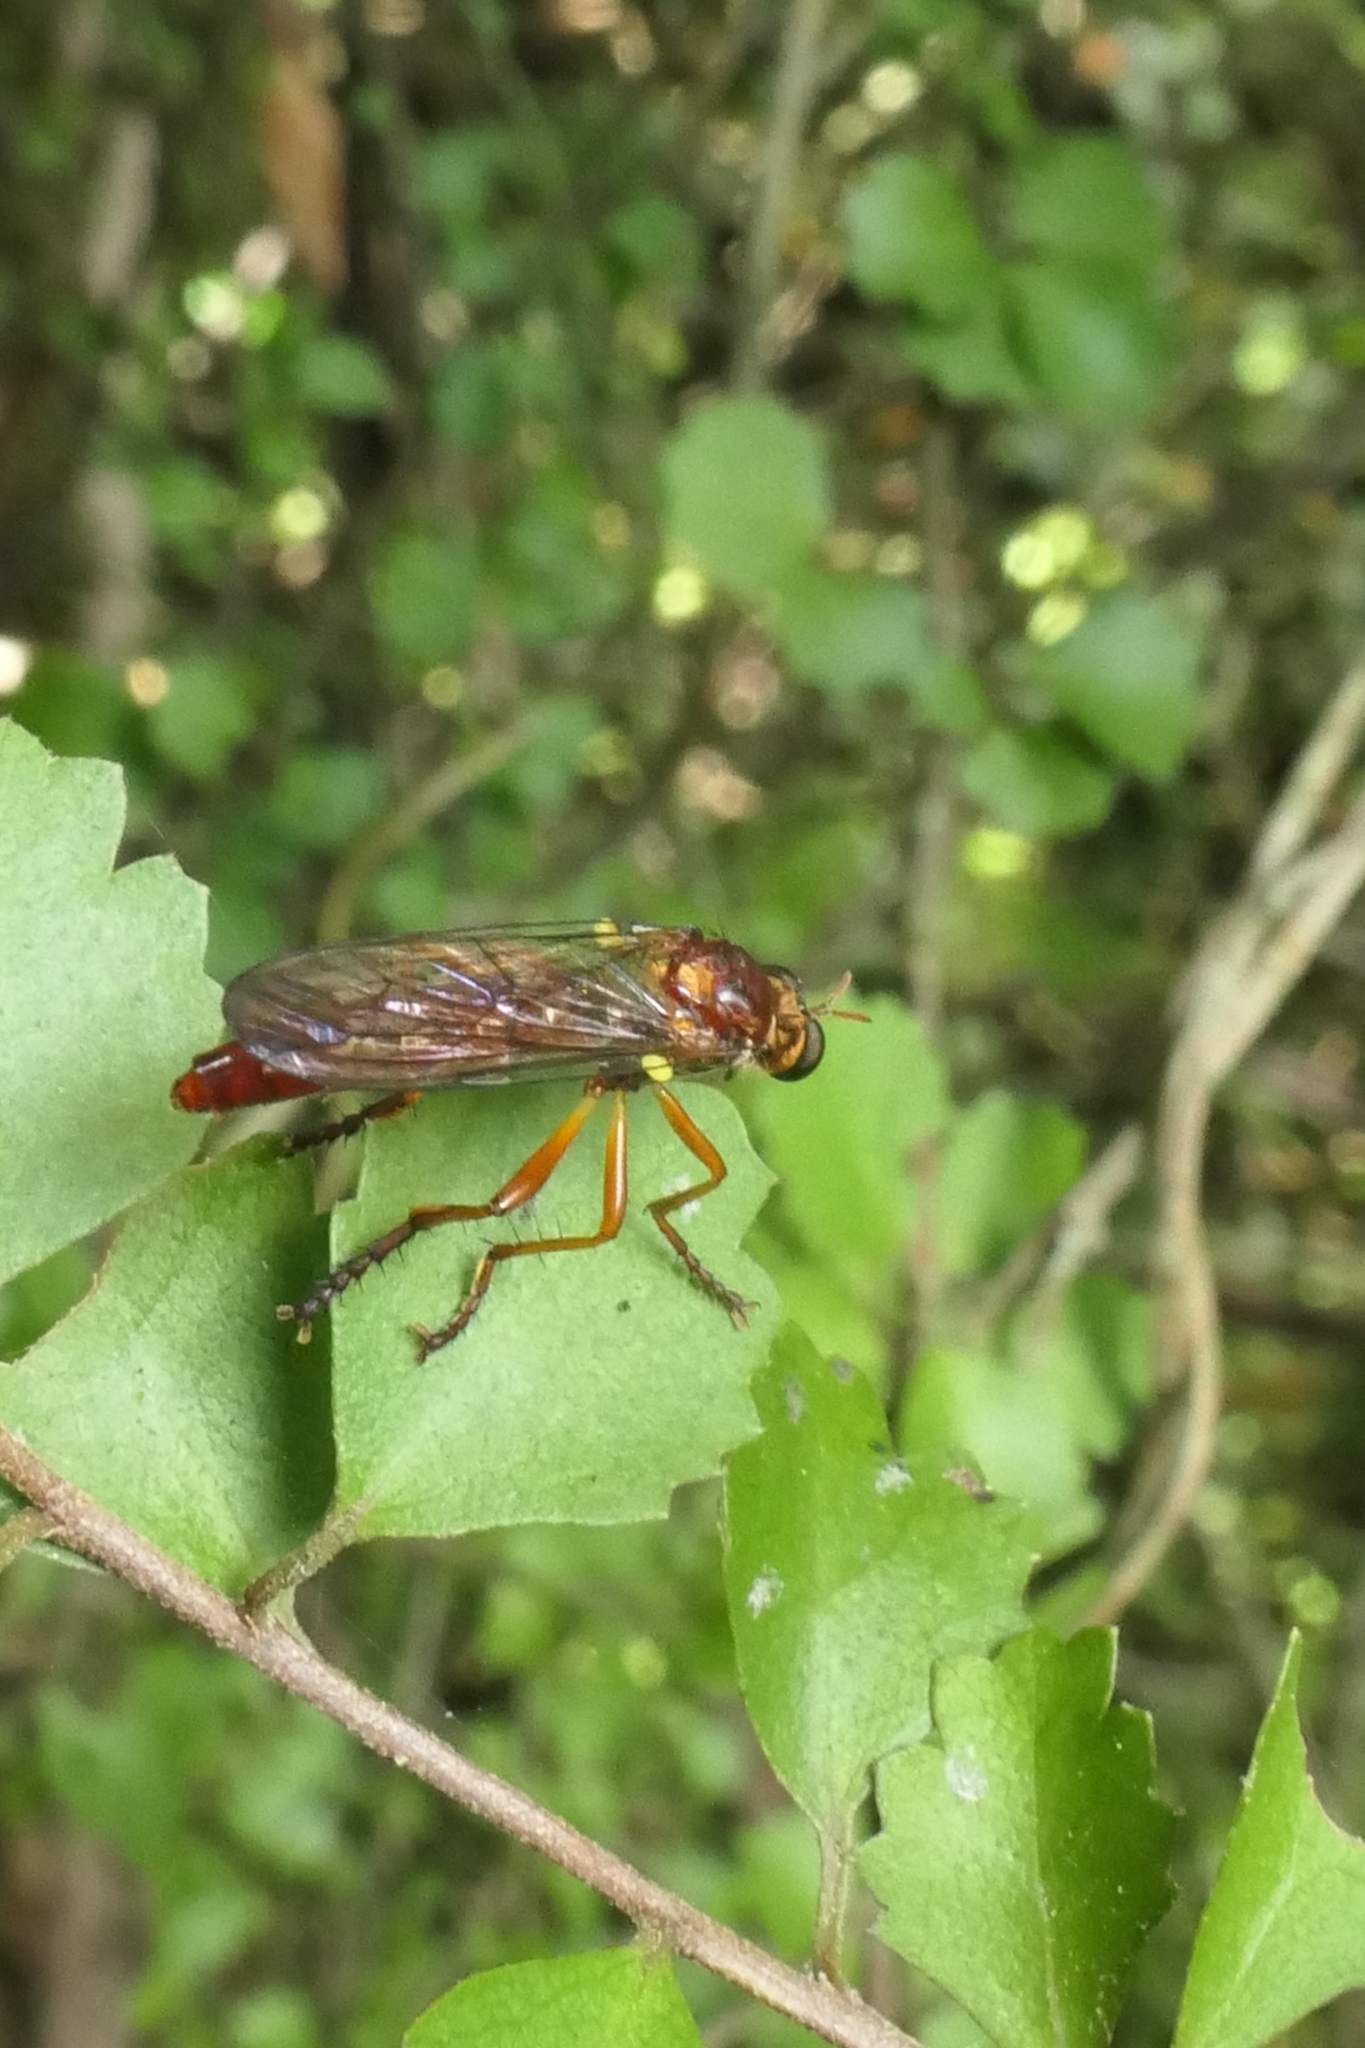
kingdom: Animalia
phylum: Arthropoda
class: Insecta
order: Diptera
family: Asilidae
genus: Saropogon
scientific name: Saropogon antipodus
